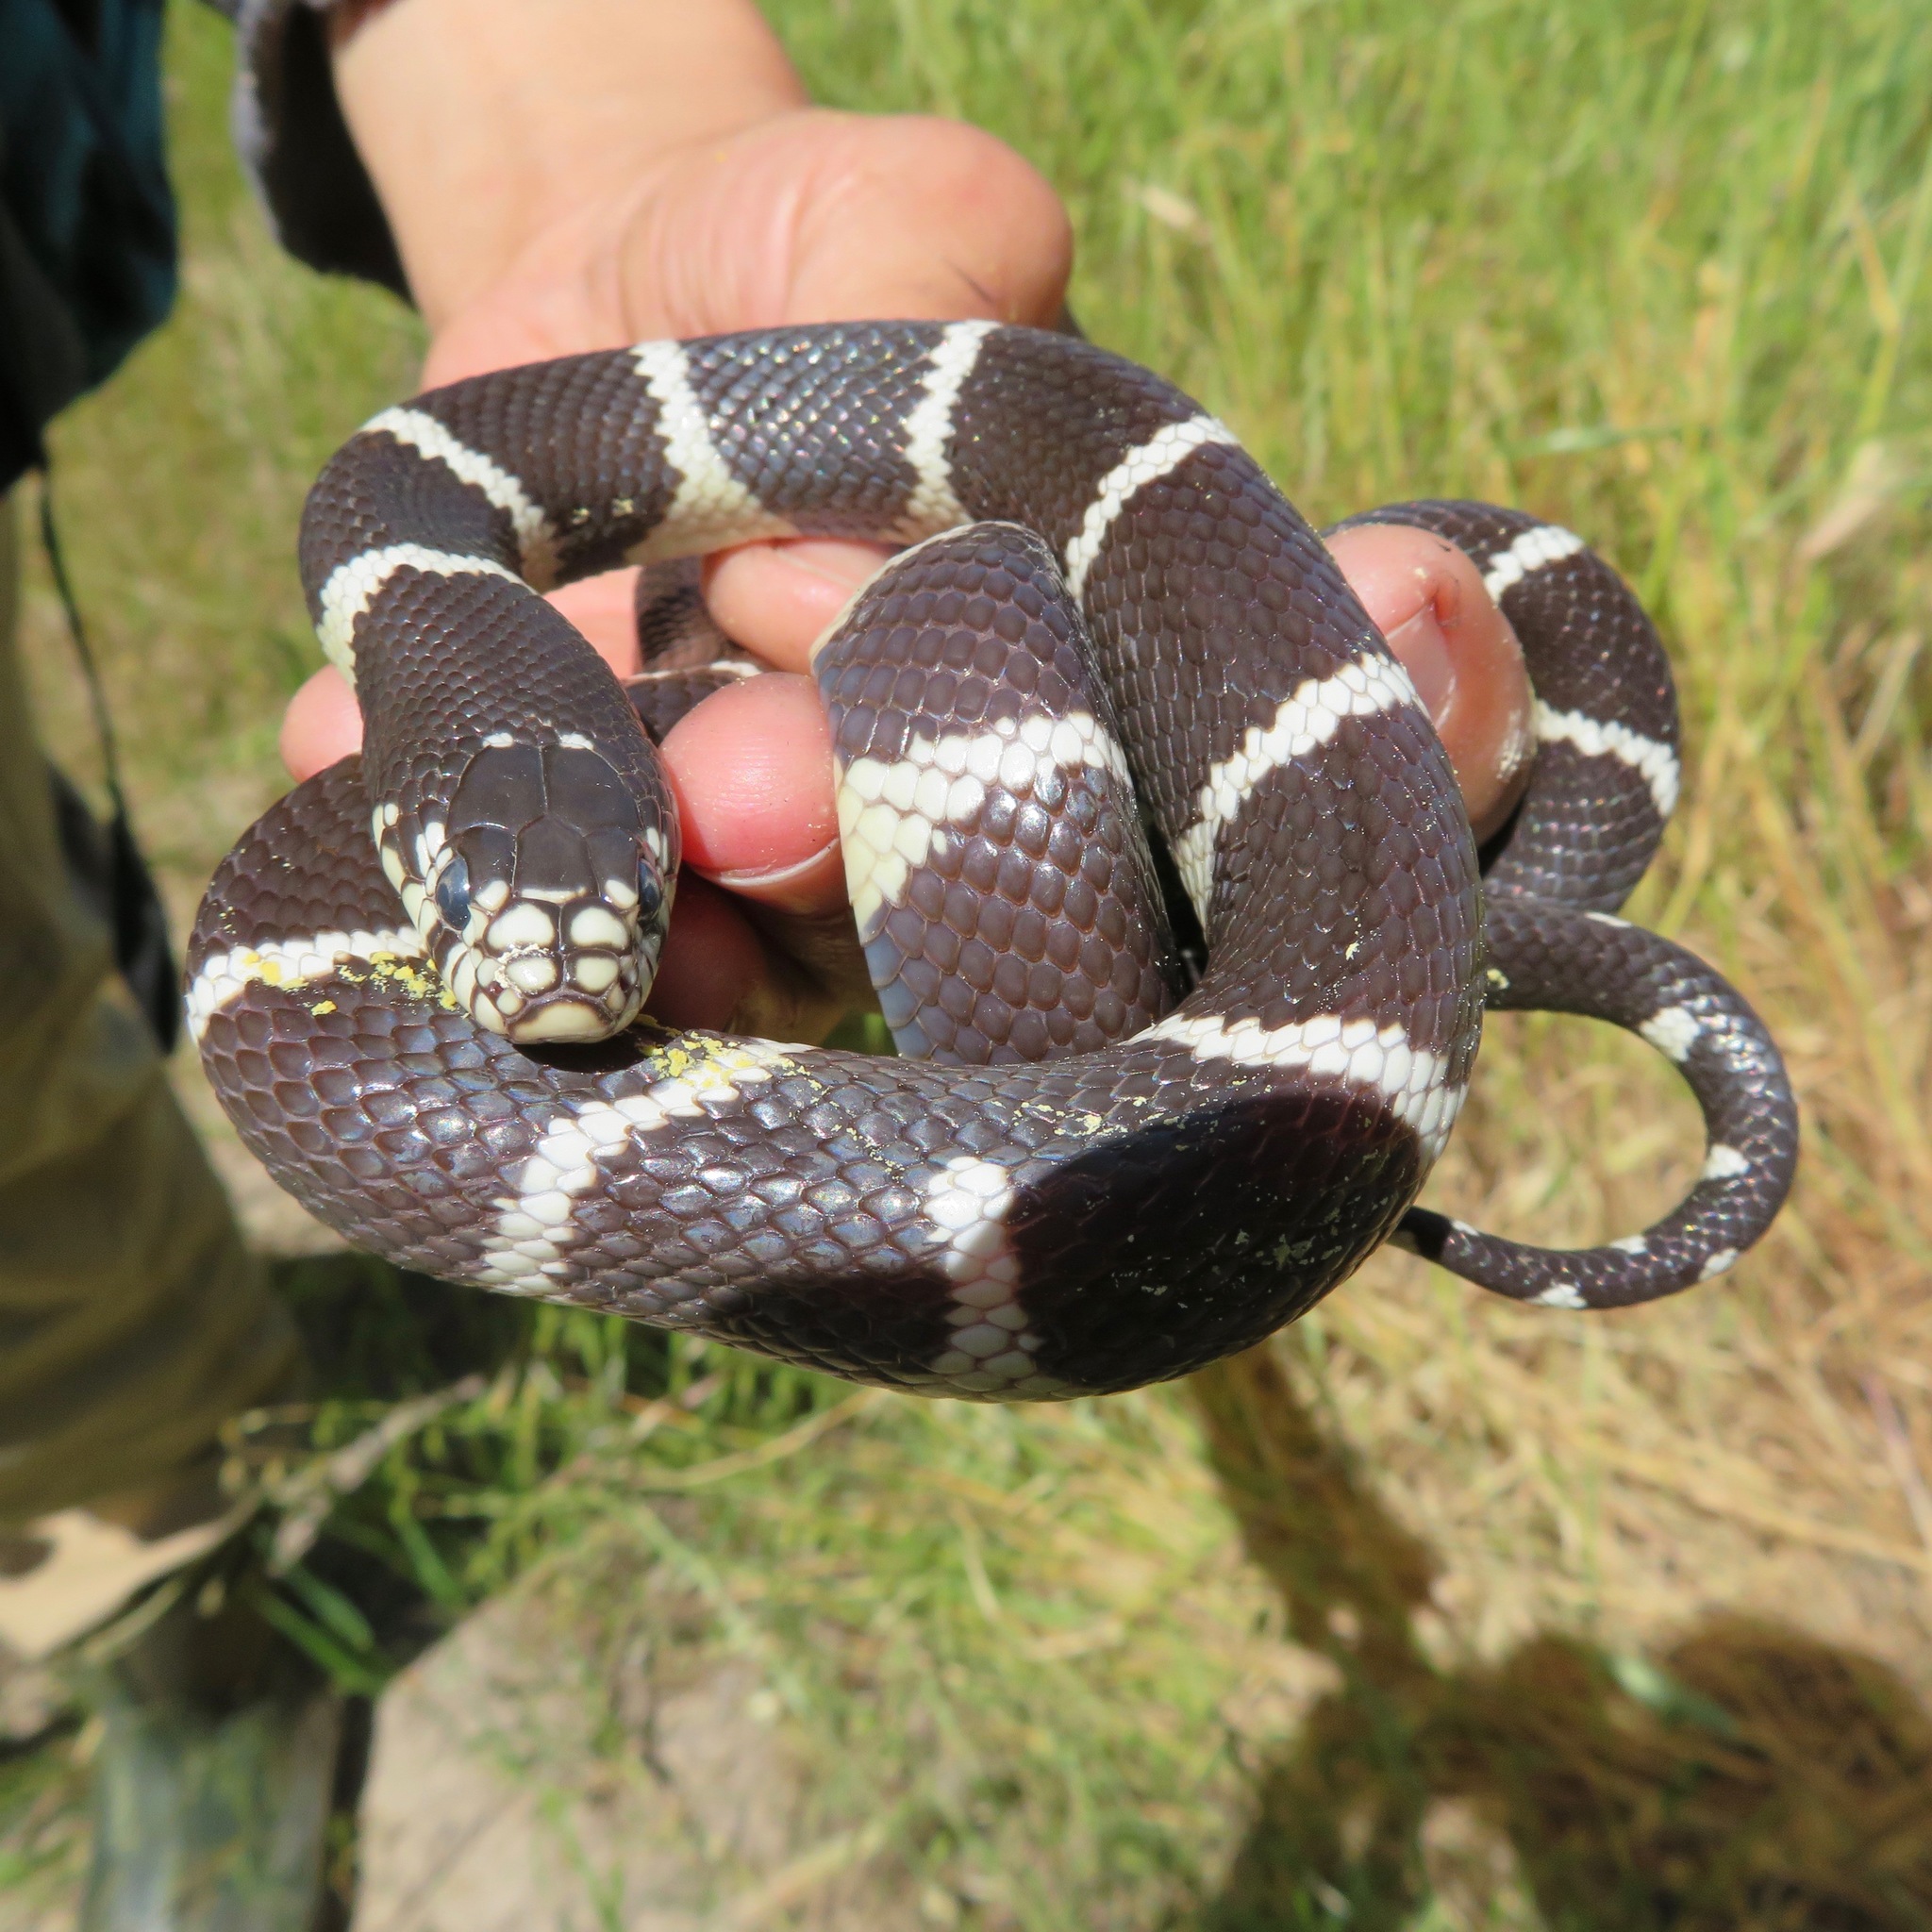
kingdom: Animalia
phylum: Chordata
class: Squamata
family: Colubridae
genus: Lampropeltis
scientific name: Lampropeltis californiae
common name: California kingsnake
